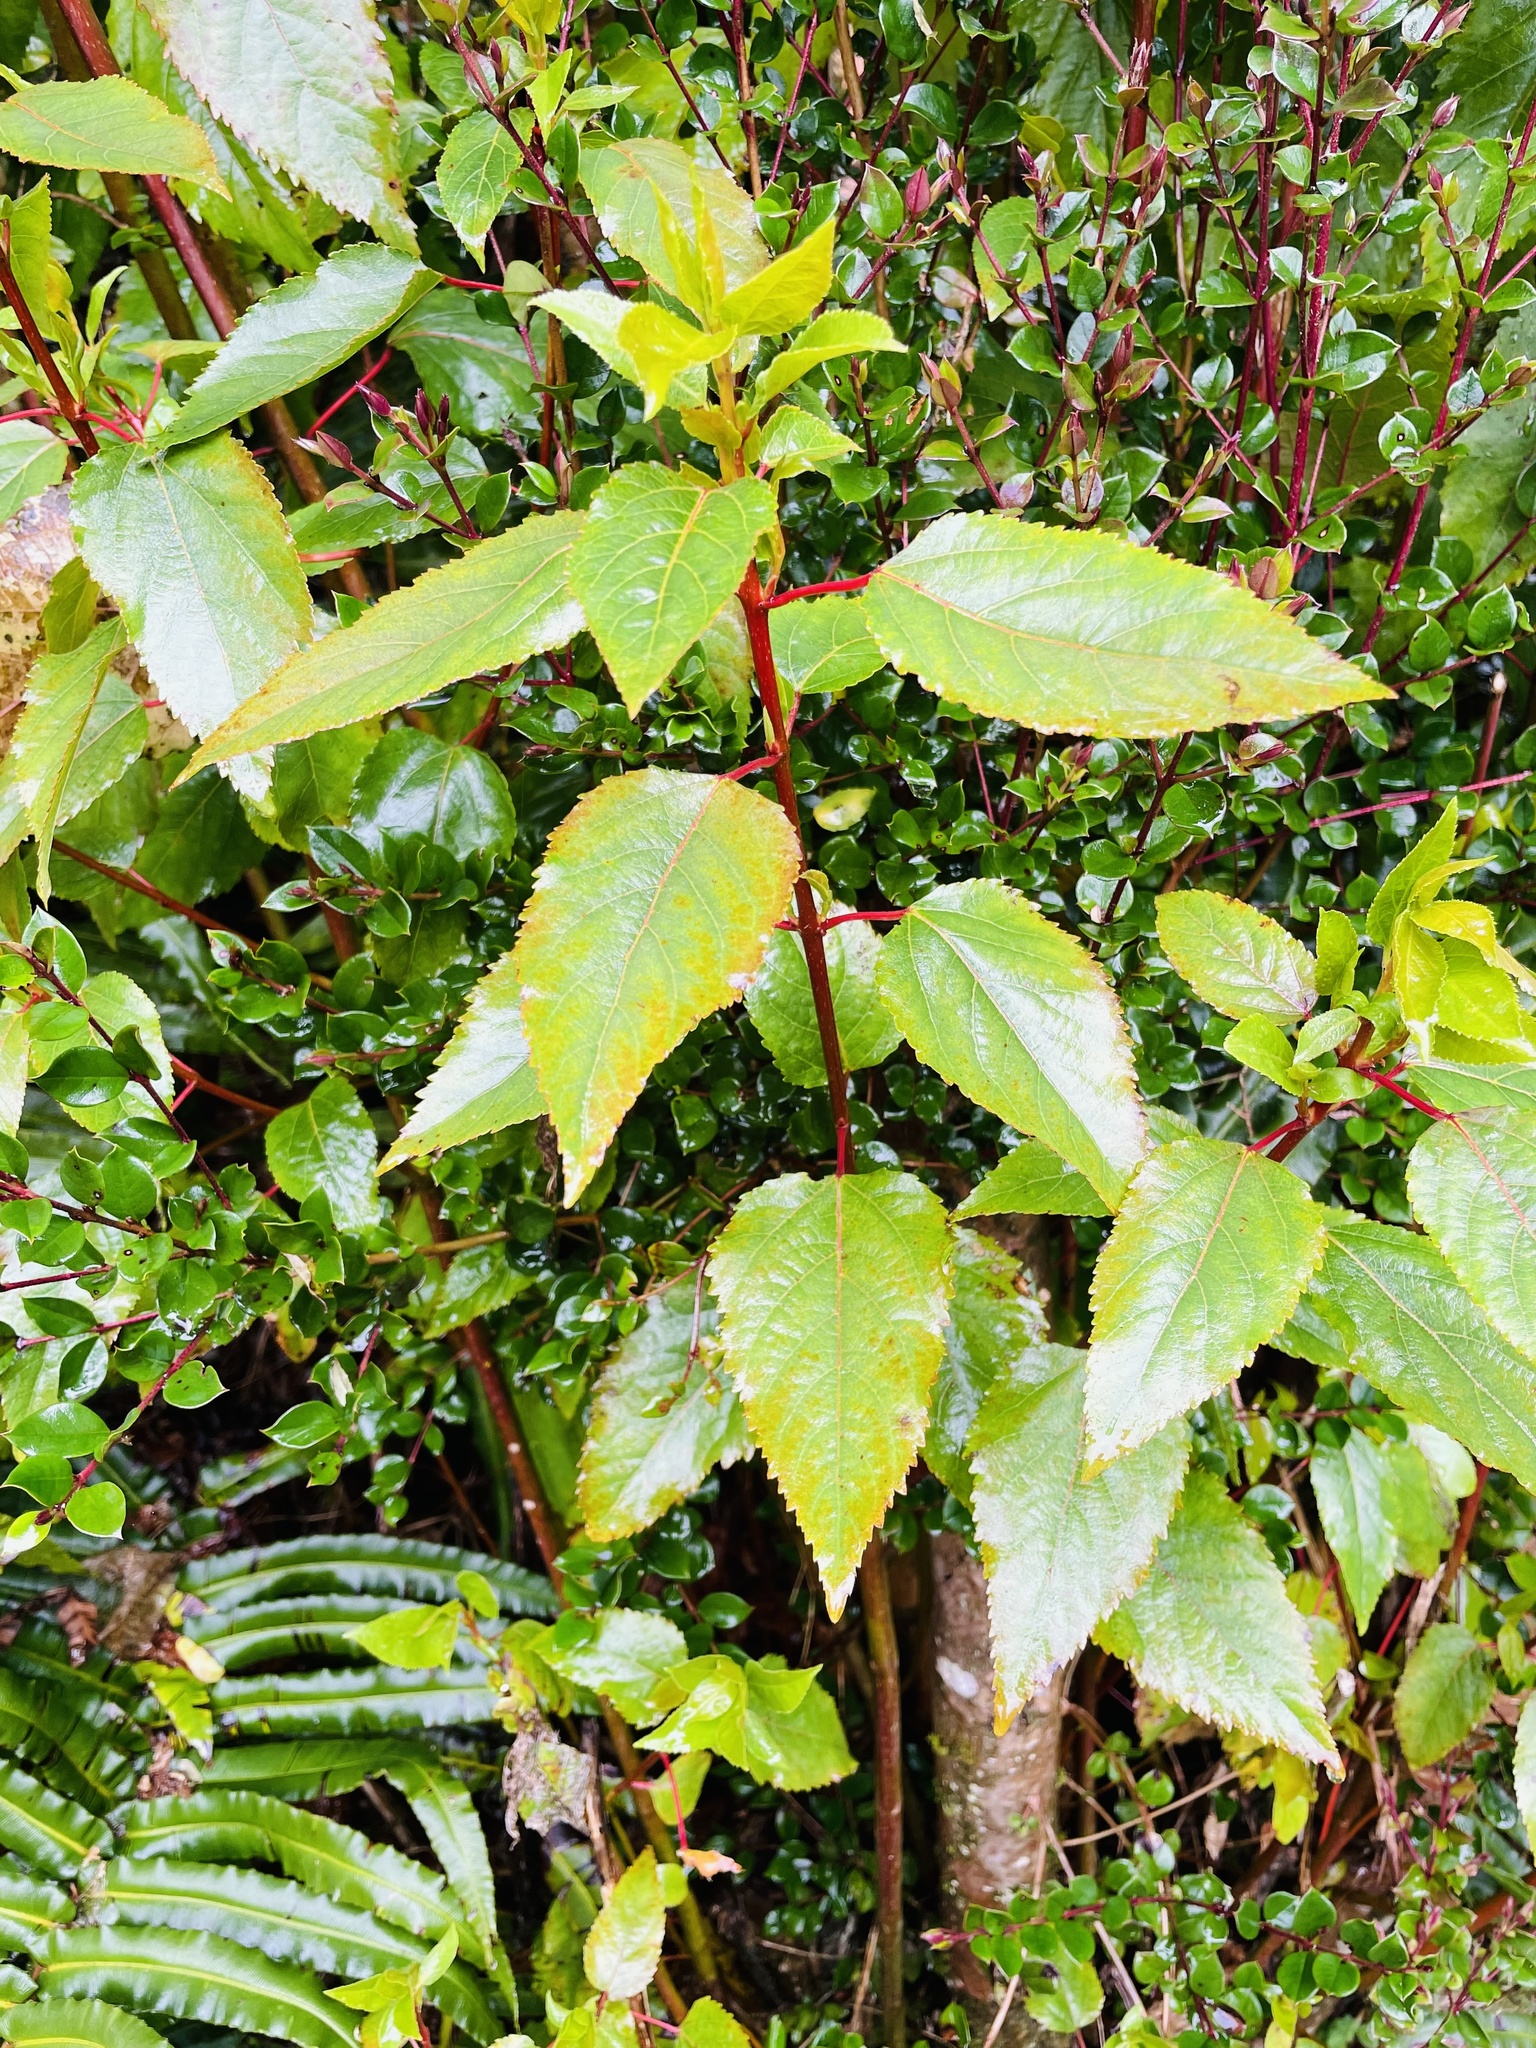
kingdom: Plantae
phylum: Tracheophyta
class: Magnoliopsida
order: Oxalidales
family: Elaeocarpaceae
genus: Aristotelia
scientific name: Aristotelia chilensis
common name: Maquei
